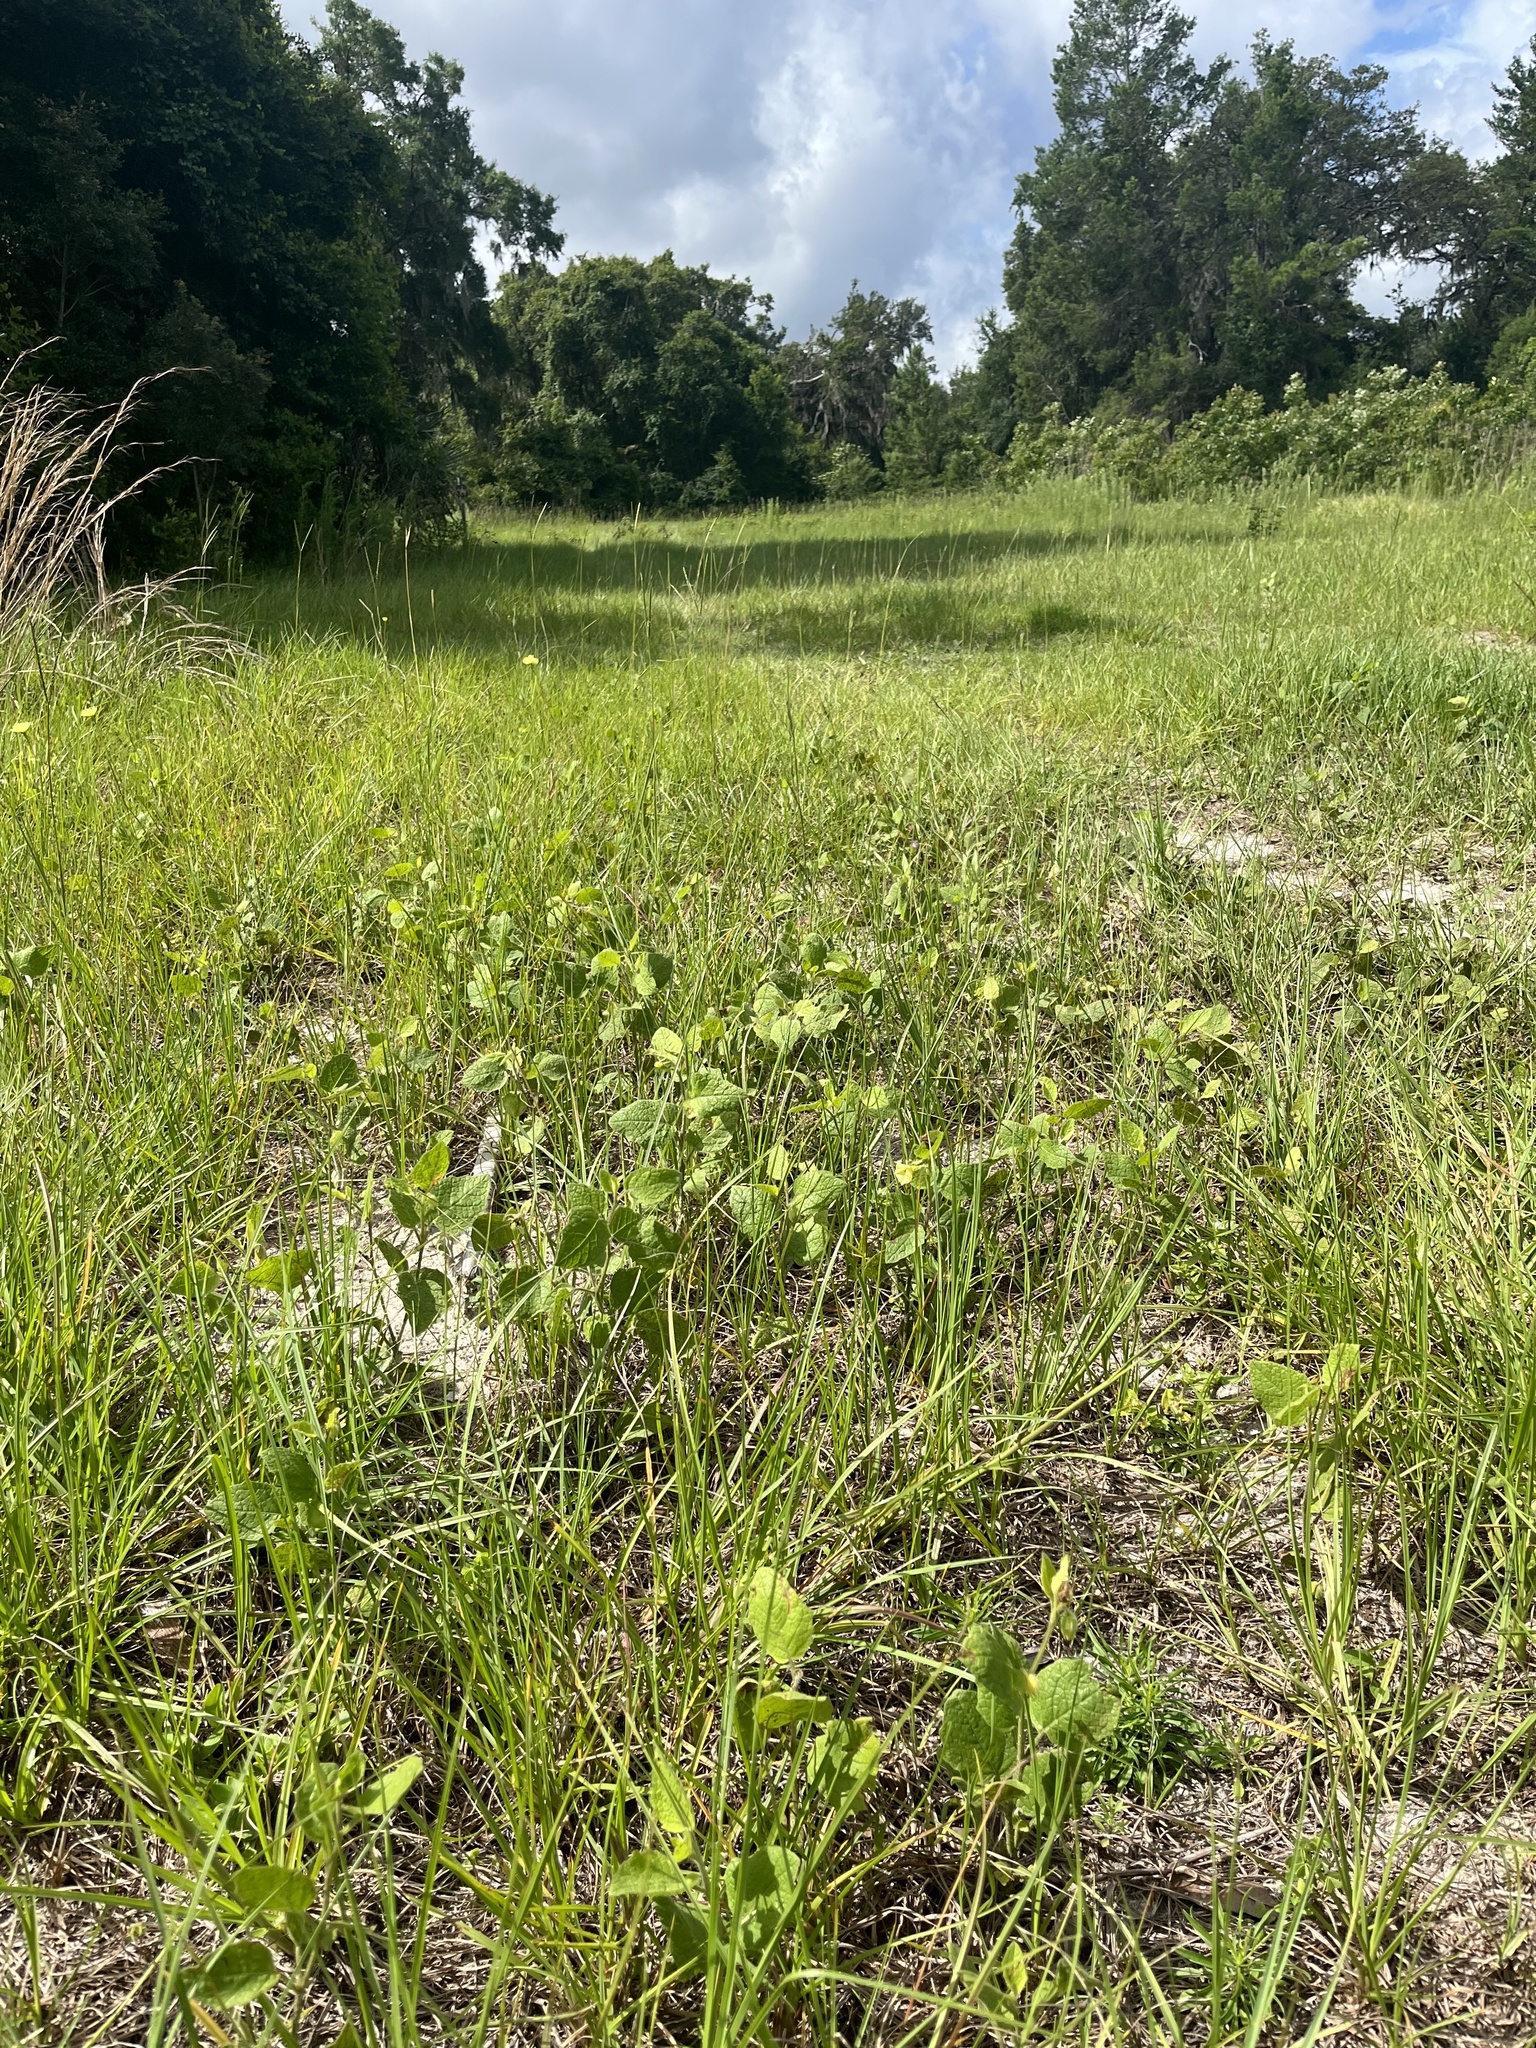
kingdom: Plantae
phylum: Tracheophyta
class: Magnoliopsida
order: Solanales
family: Solanaceae
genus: Physalis
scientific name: Physalis arenicola
